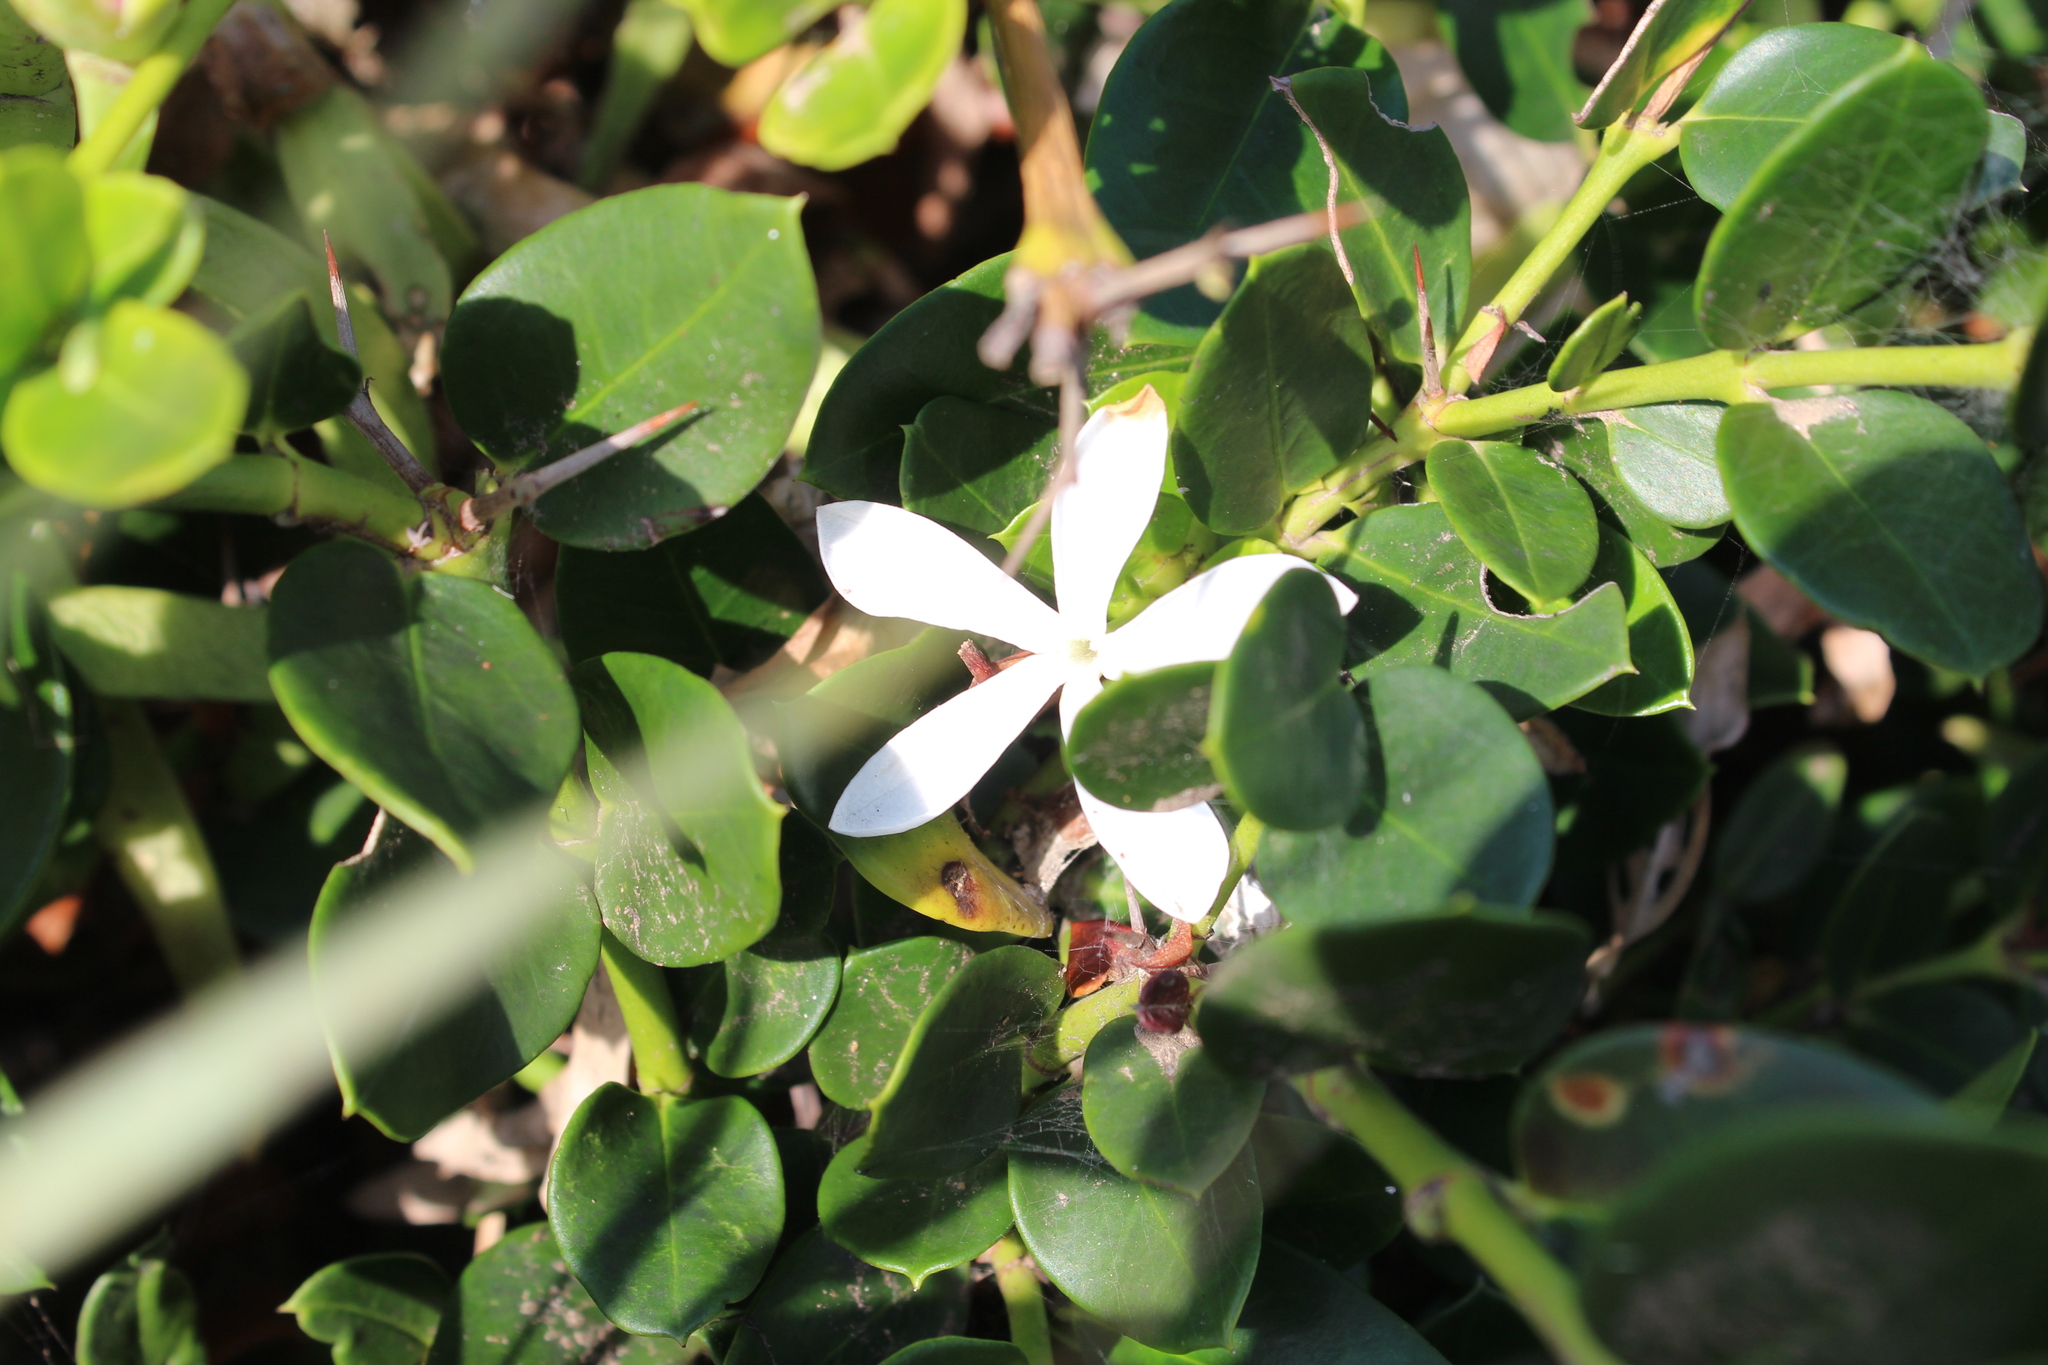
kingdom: Plantae
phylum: Tracheophyta
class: Magnoliopsida
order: Gentianales
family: Apocynaceae
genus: Carissa
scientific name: Carissa macrocarpa
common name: Natal plum
